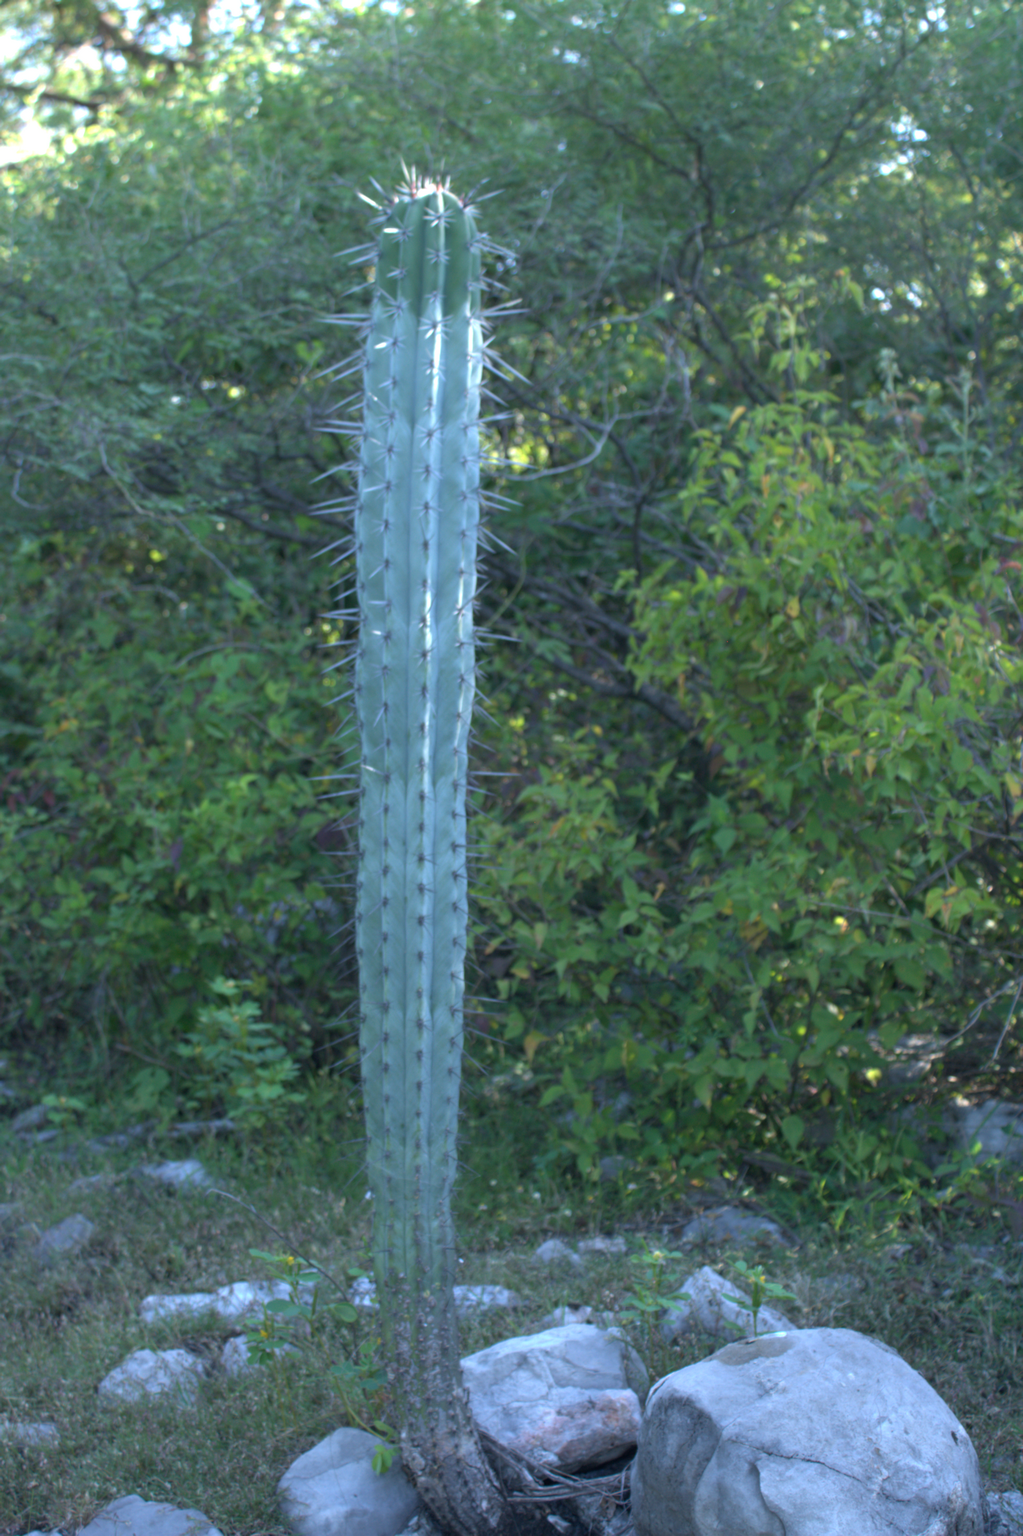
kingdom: Plantae
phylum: Tracheophyta
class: Magnoliopsida
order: Caryophyllales
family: Cactaceae
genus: Pachycereus
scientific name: Pachycereus weberi
